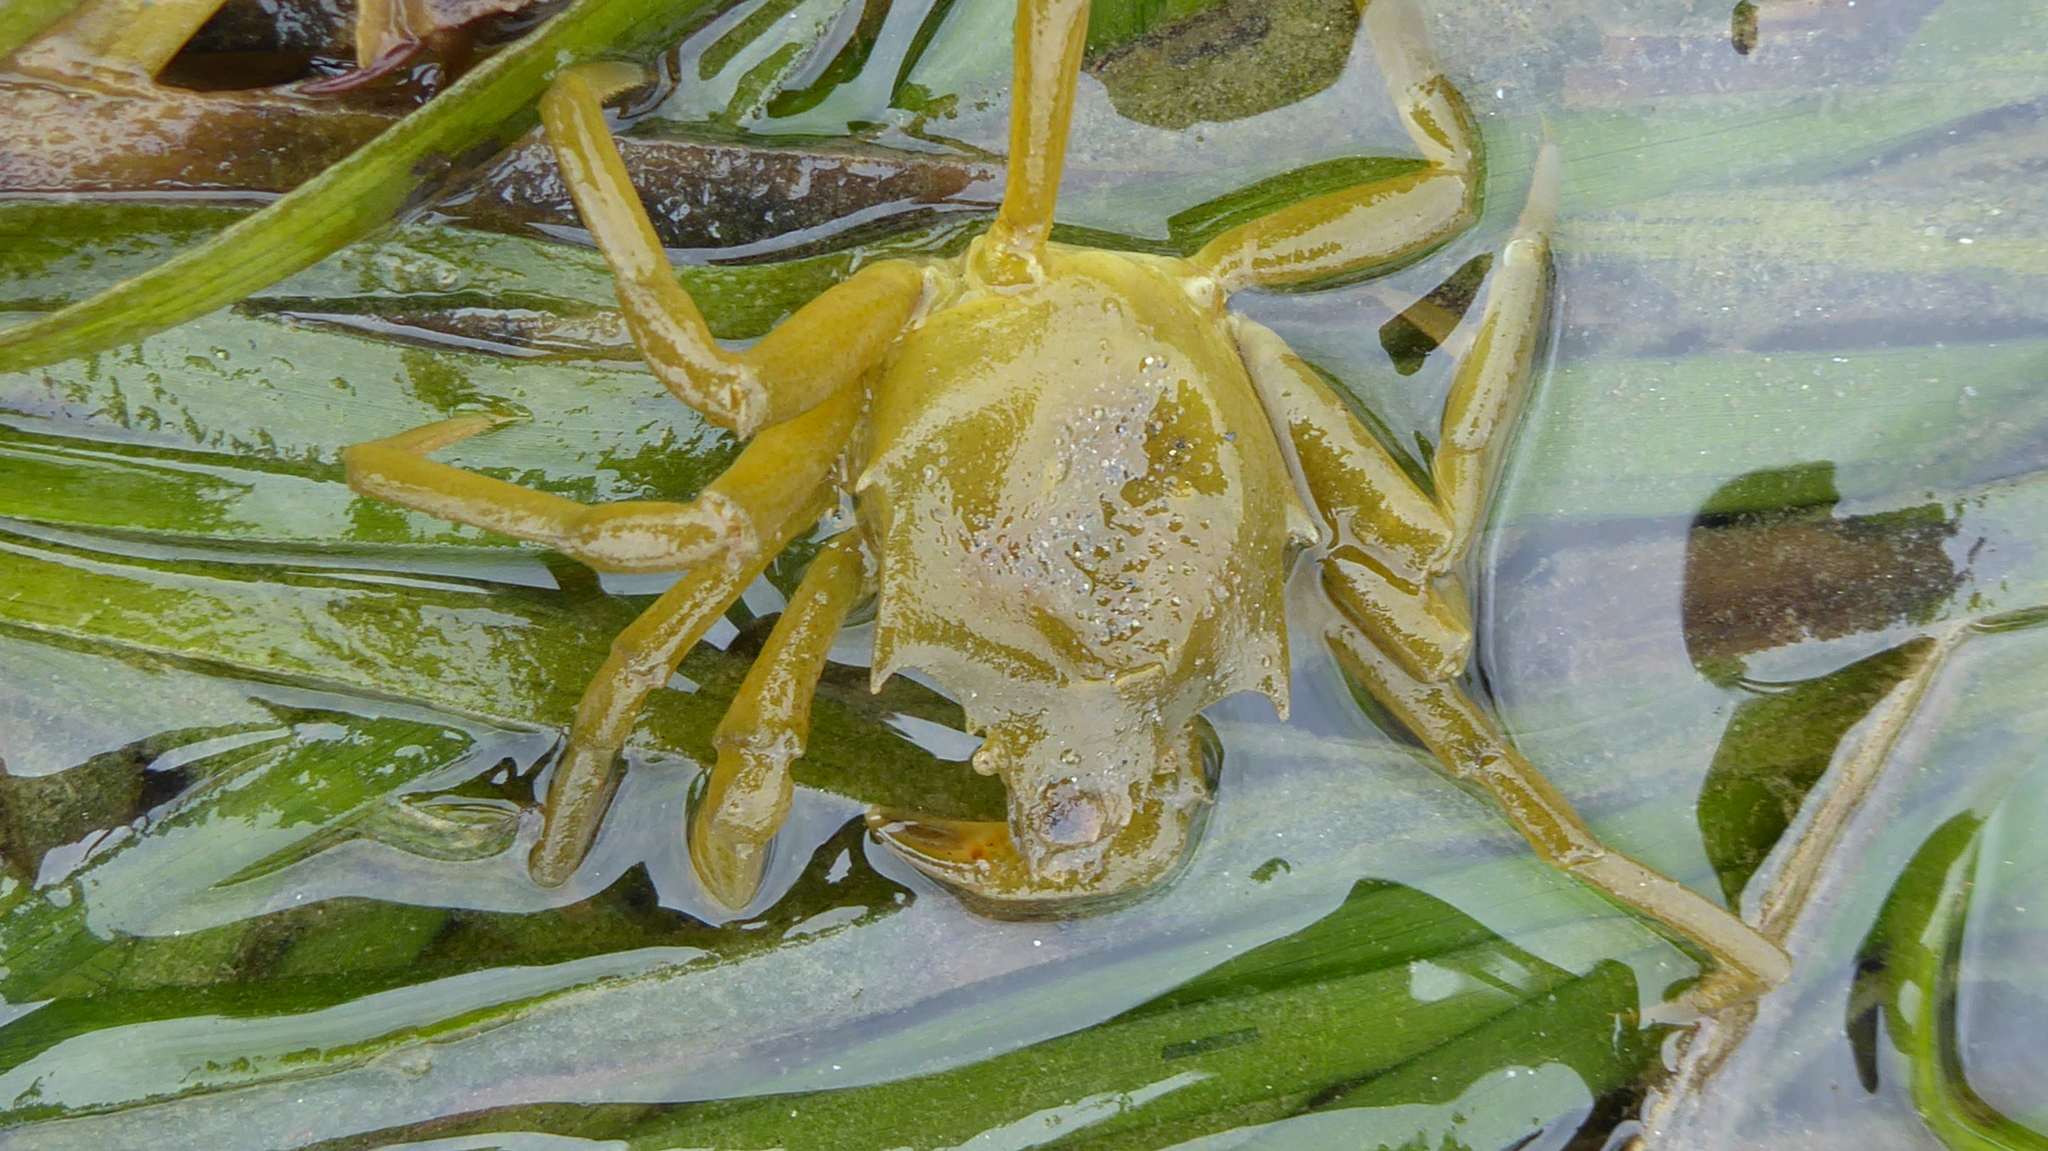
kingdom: Animalia
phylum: Arthropoda
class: Malacostraca
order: Decapoda
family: Epialtidae
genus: Pugettia
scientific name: Pugettia producta
